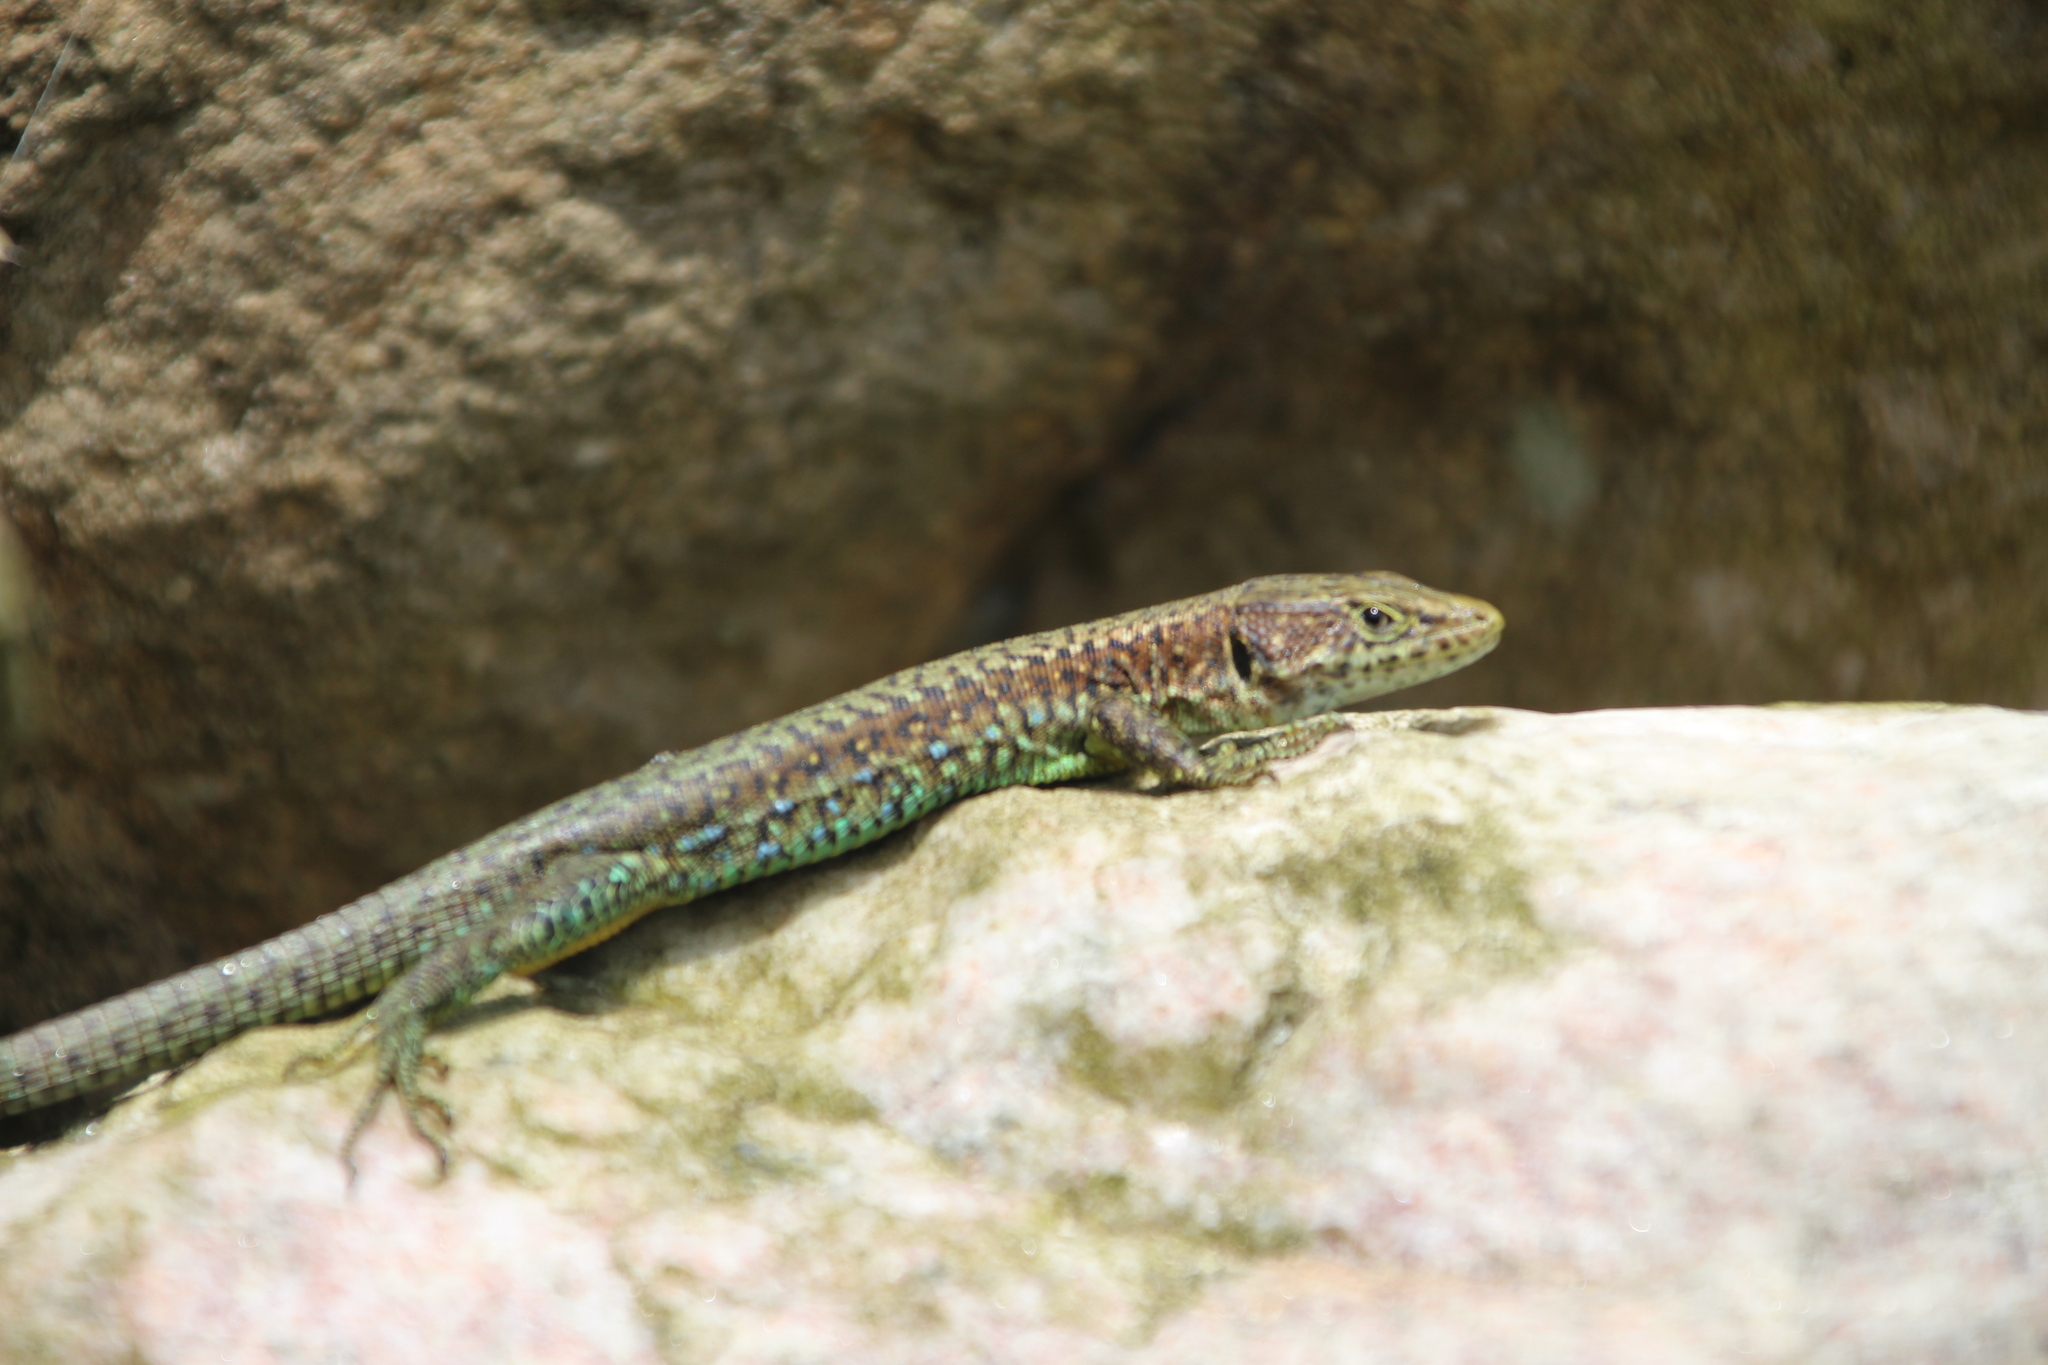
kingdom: Animalia
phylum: Chordata
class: Squamata
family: Lacertidae
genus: Adolfus
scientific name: Adolfus jacksoni
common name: Jackson’s forest lizard
